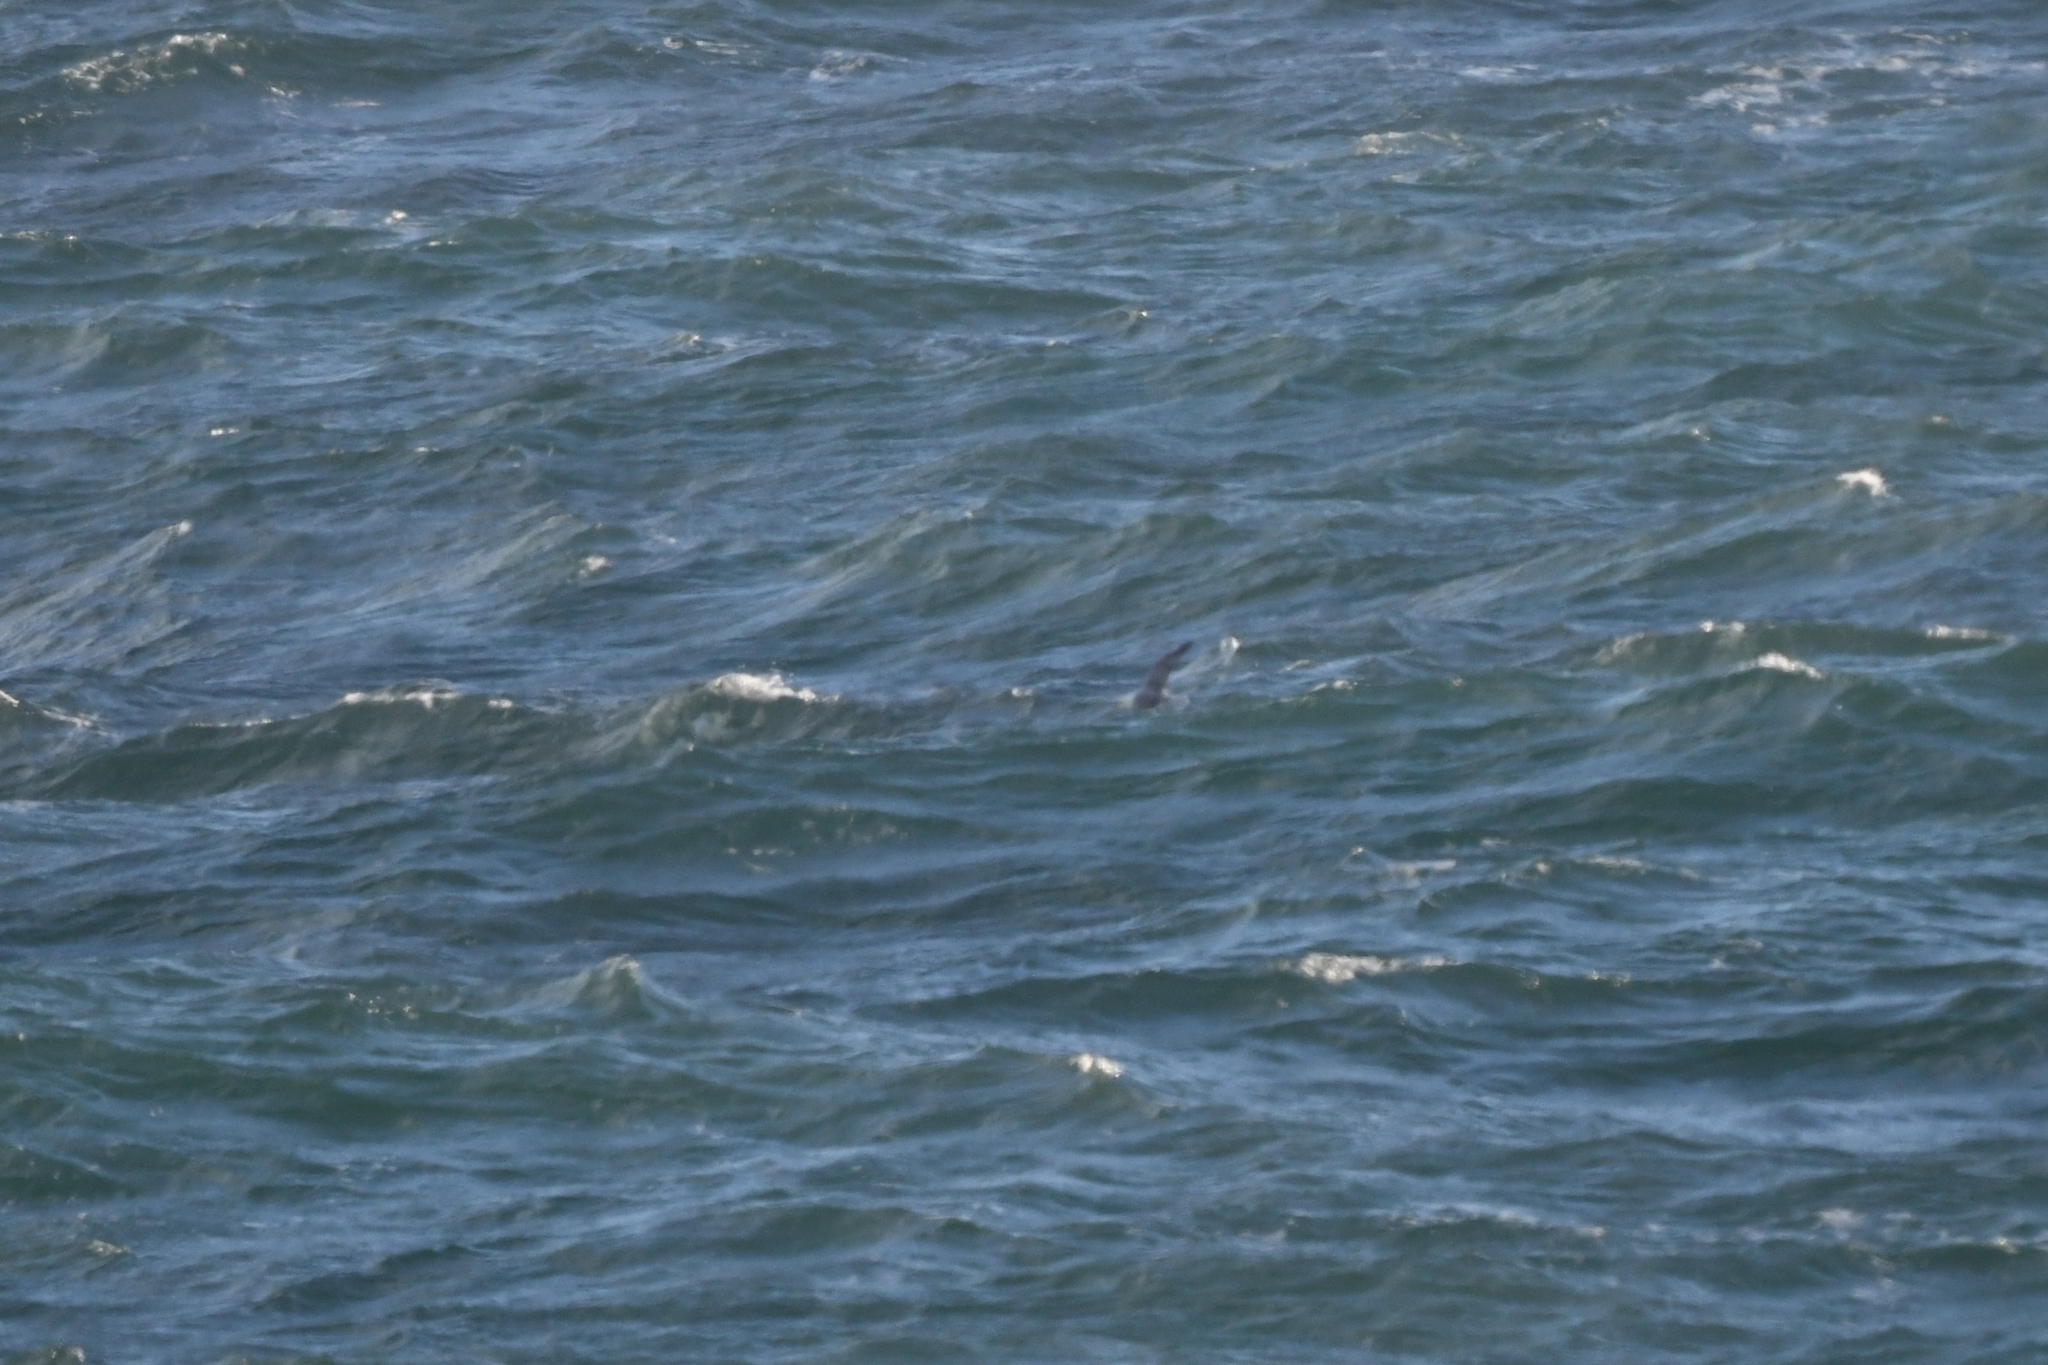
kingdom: Animalia
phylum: Chordata
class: Aves
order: Procellariiformes
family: Procellariidae
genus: Fulmarus
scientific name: Fulmarus glacialis
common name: Northern fulmar
